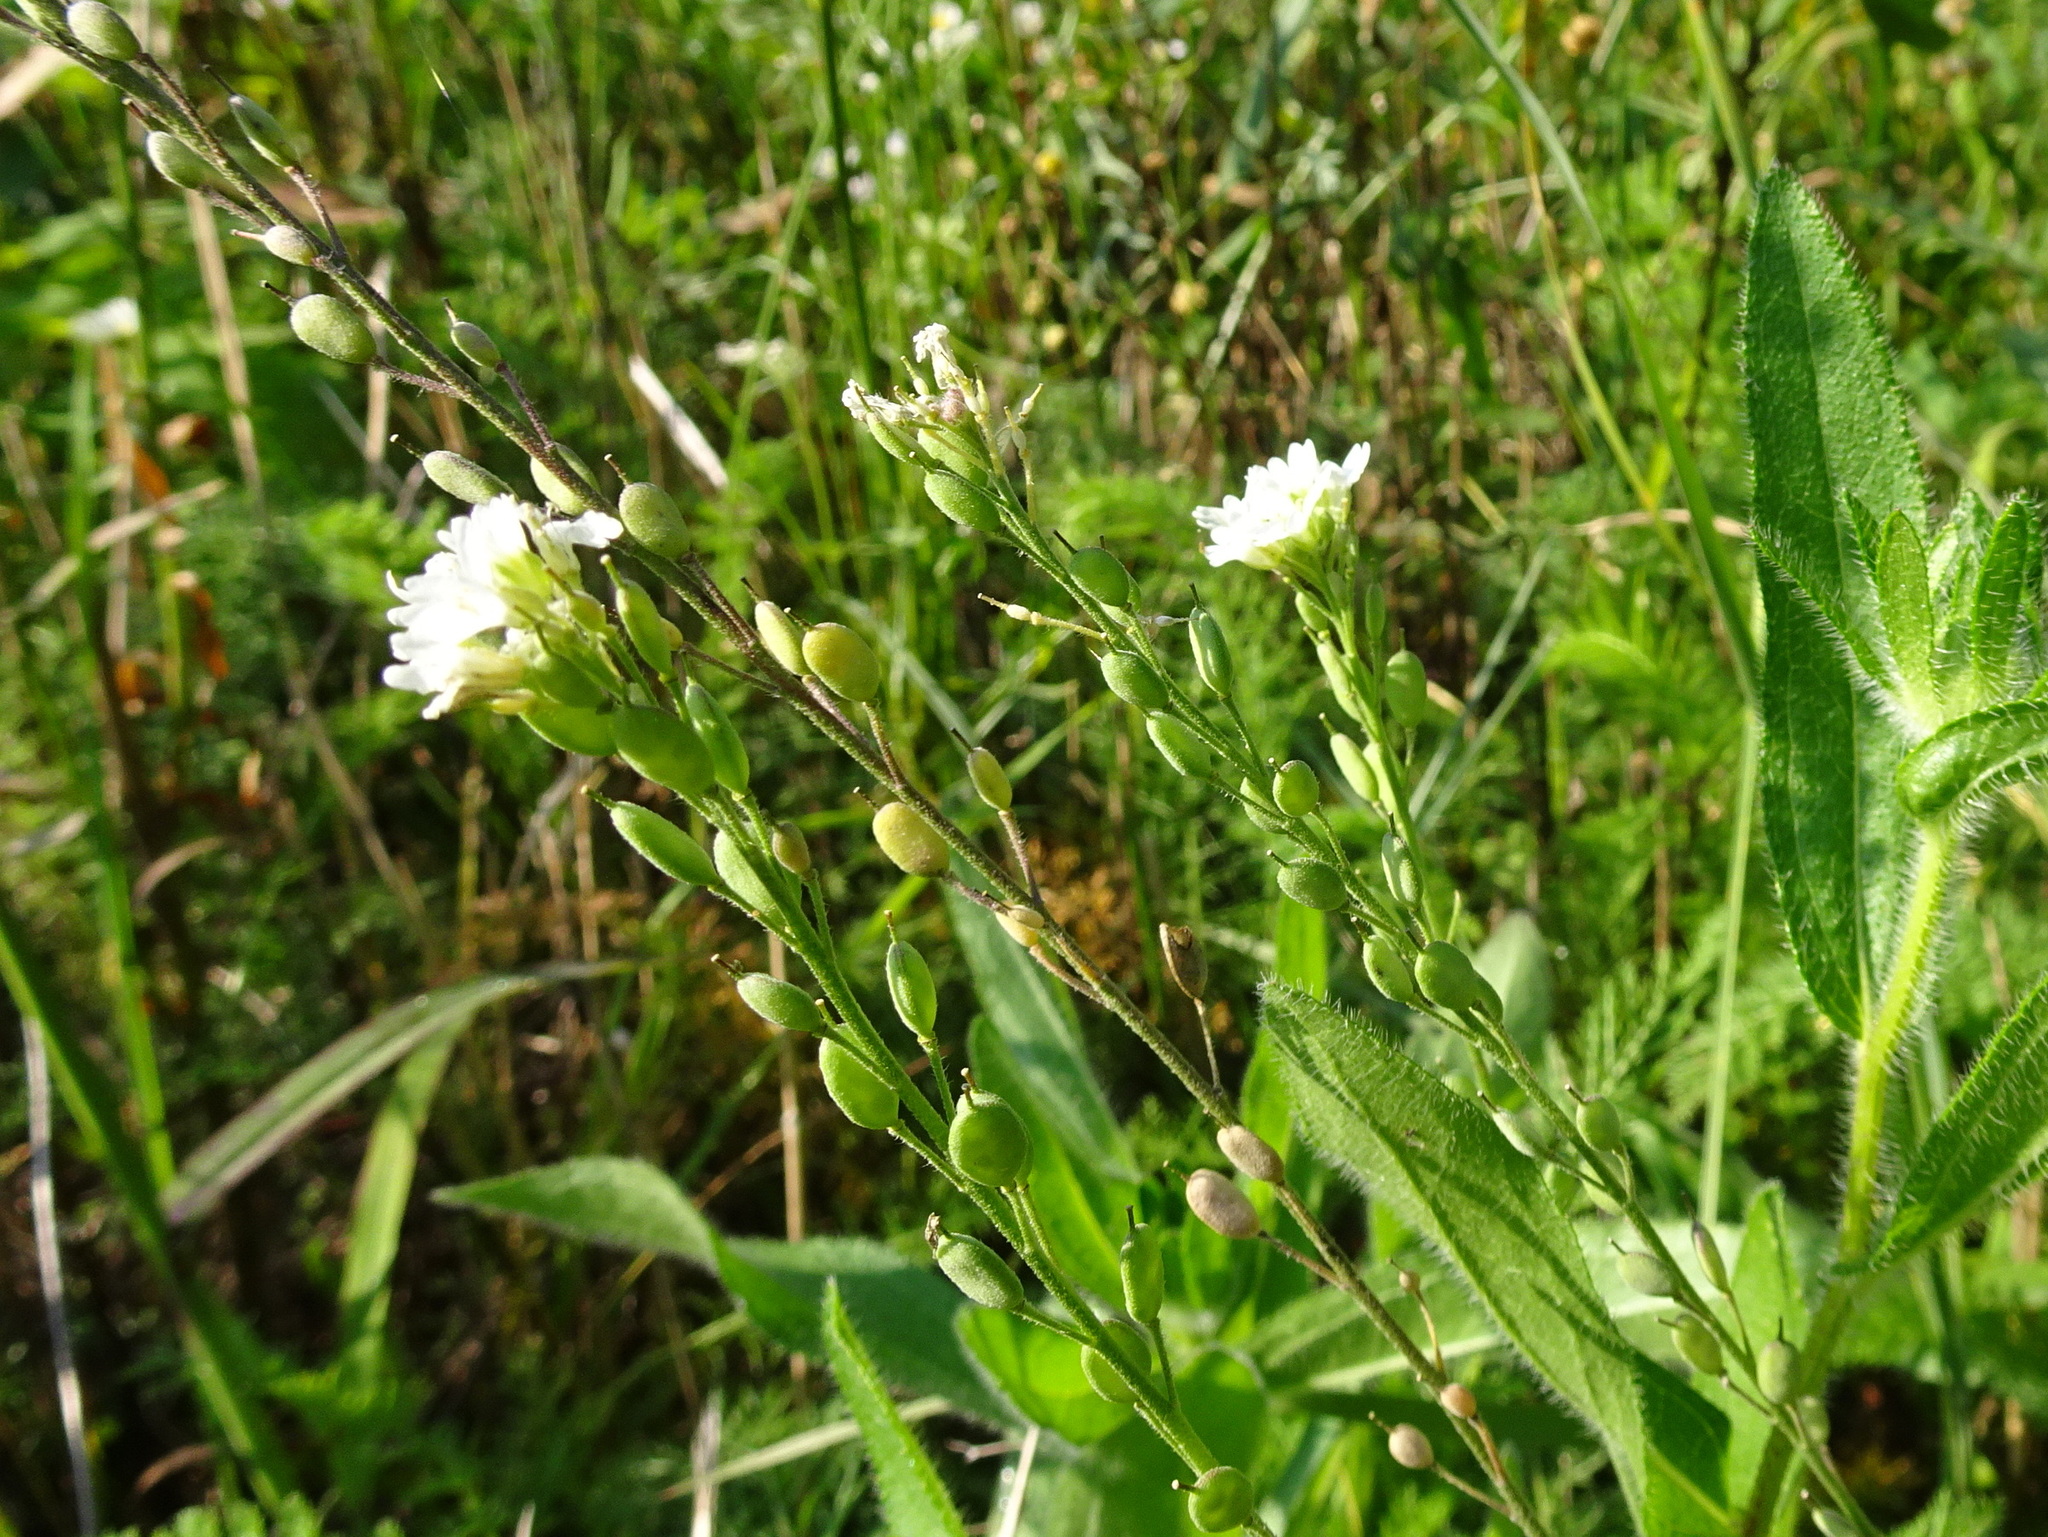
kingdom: Plantae
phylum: Tracheophyta
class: Magnoliopsida
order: Brassicales
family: Brassicaceae
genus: Berteroa
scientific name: Berteroa incana
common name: Hoary alison
